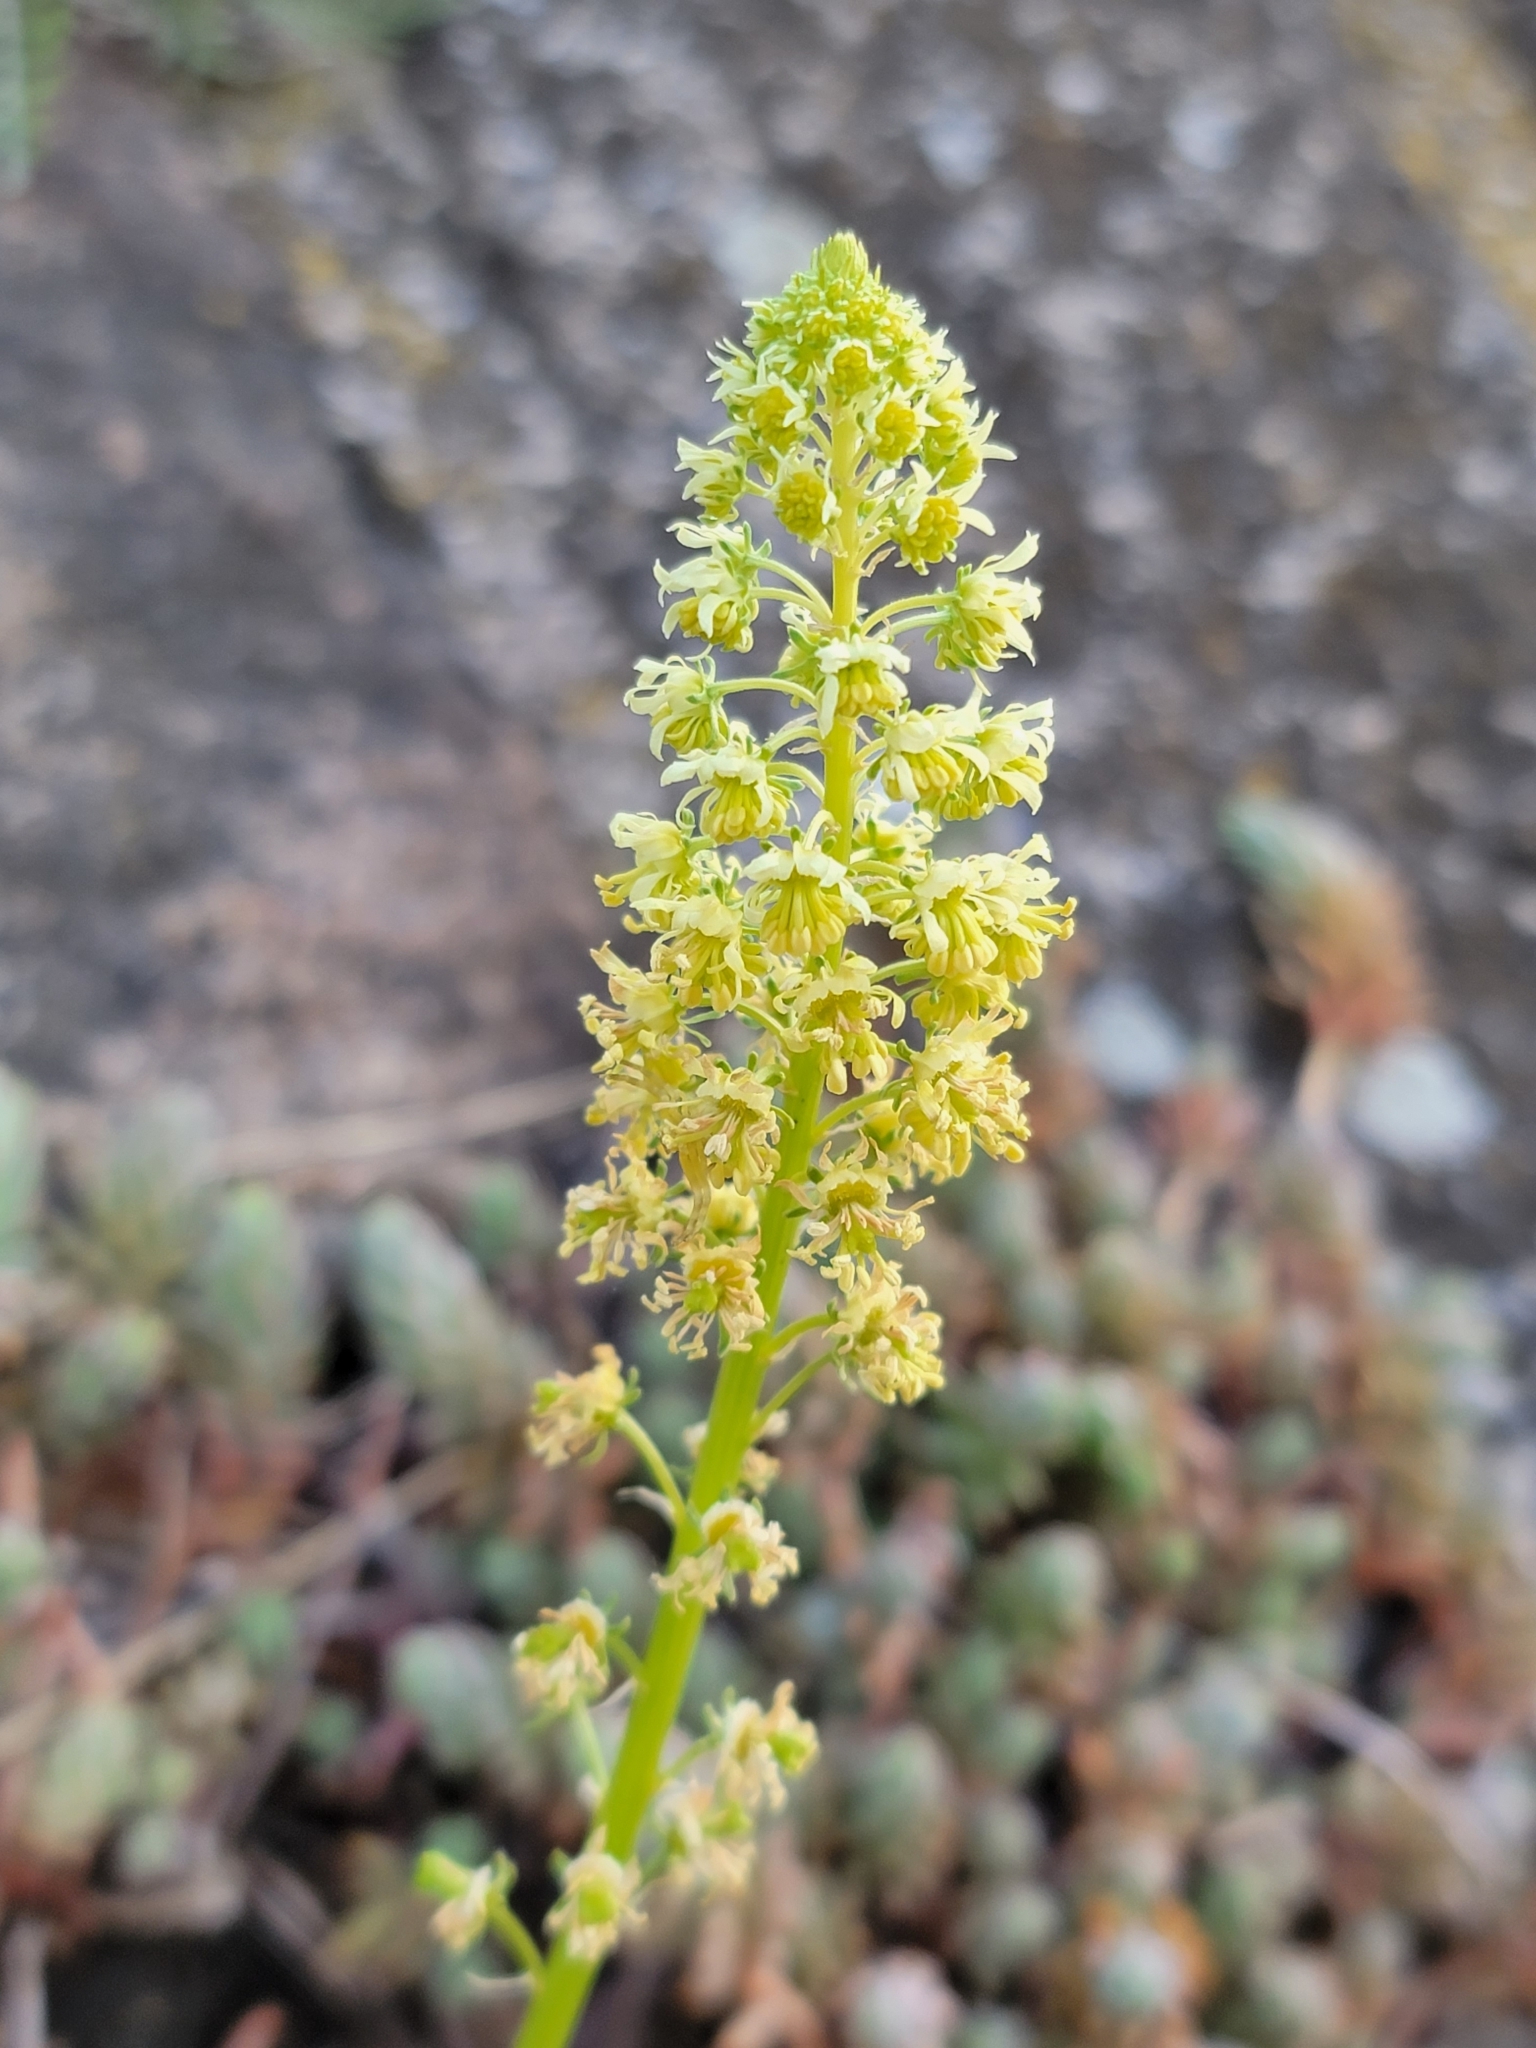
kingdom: Plantae
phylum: Tracheophyta
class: Magnoliopsida
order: Brassicales
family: Resedaceae
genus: Reseda
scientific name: Reseda lutea
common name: Wild mignonette
